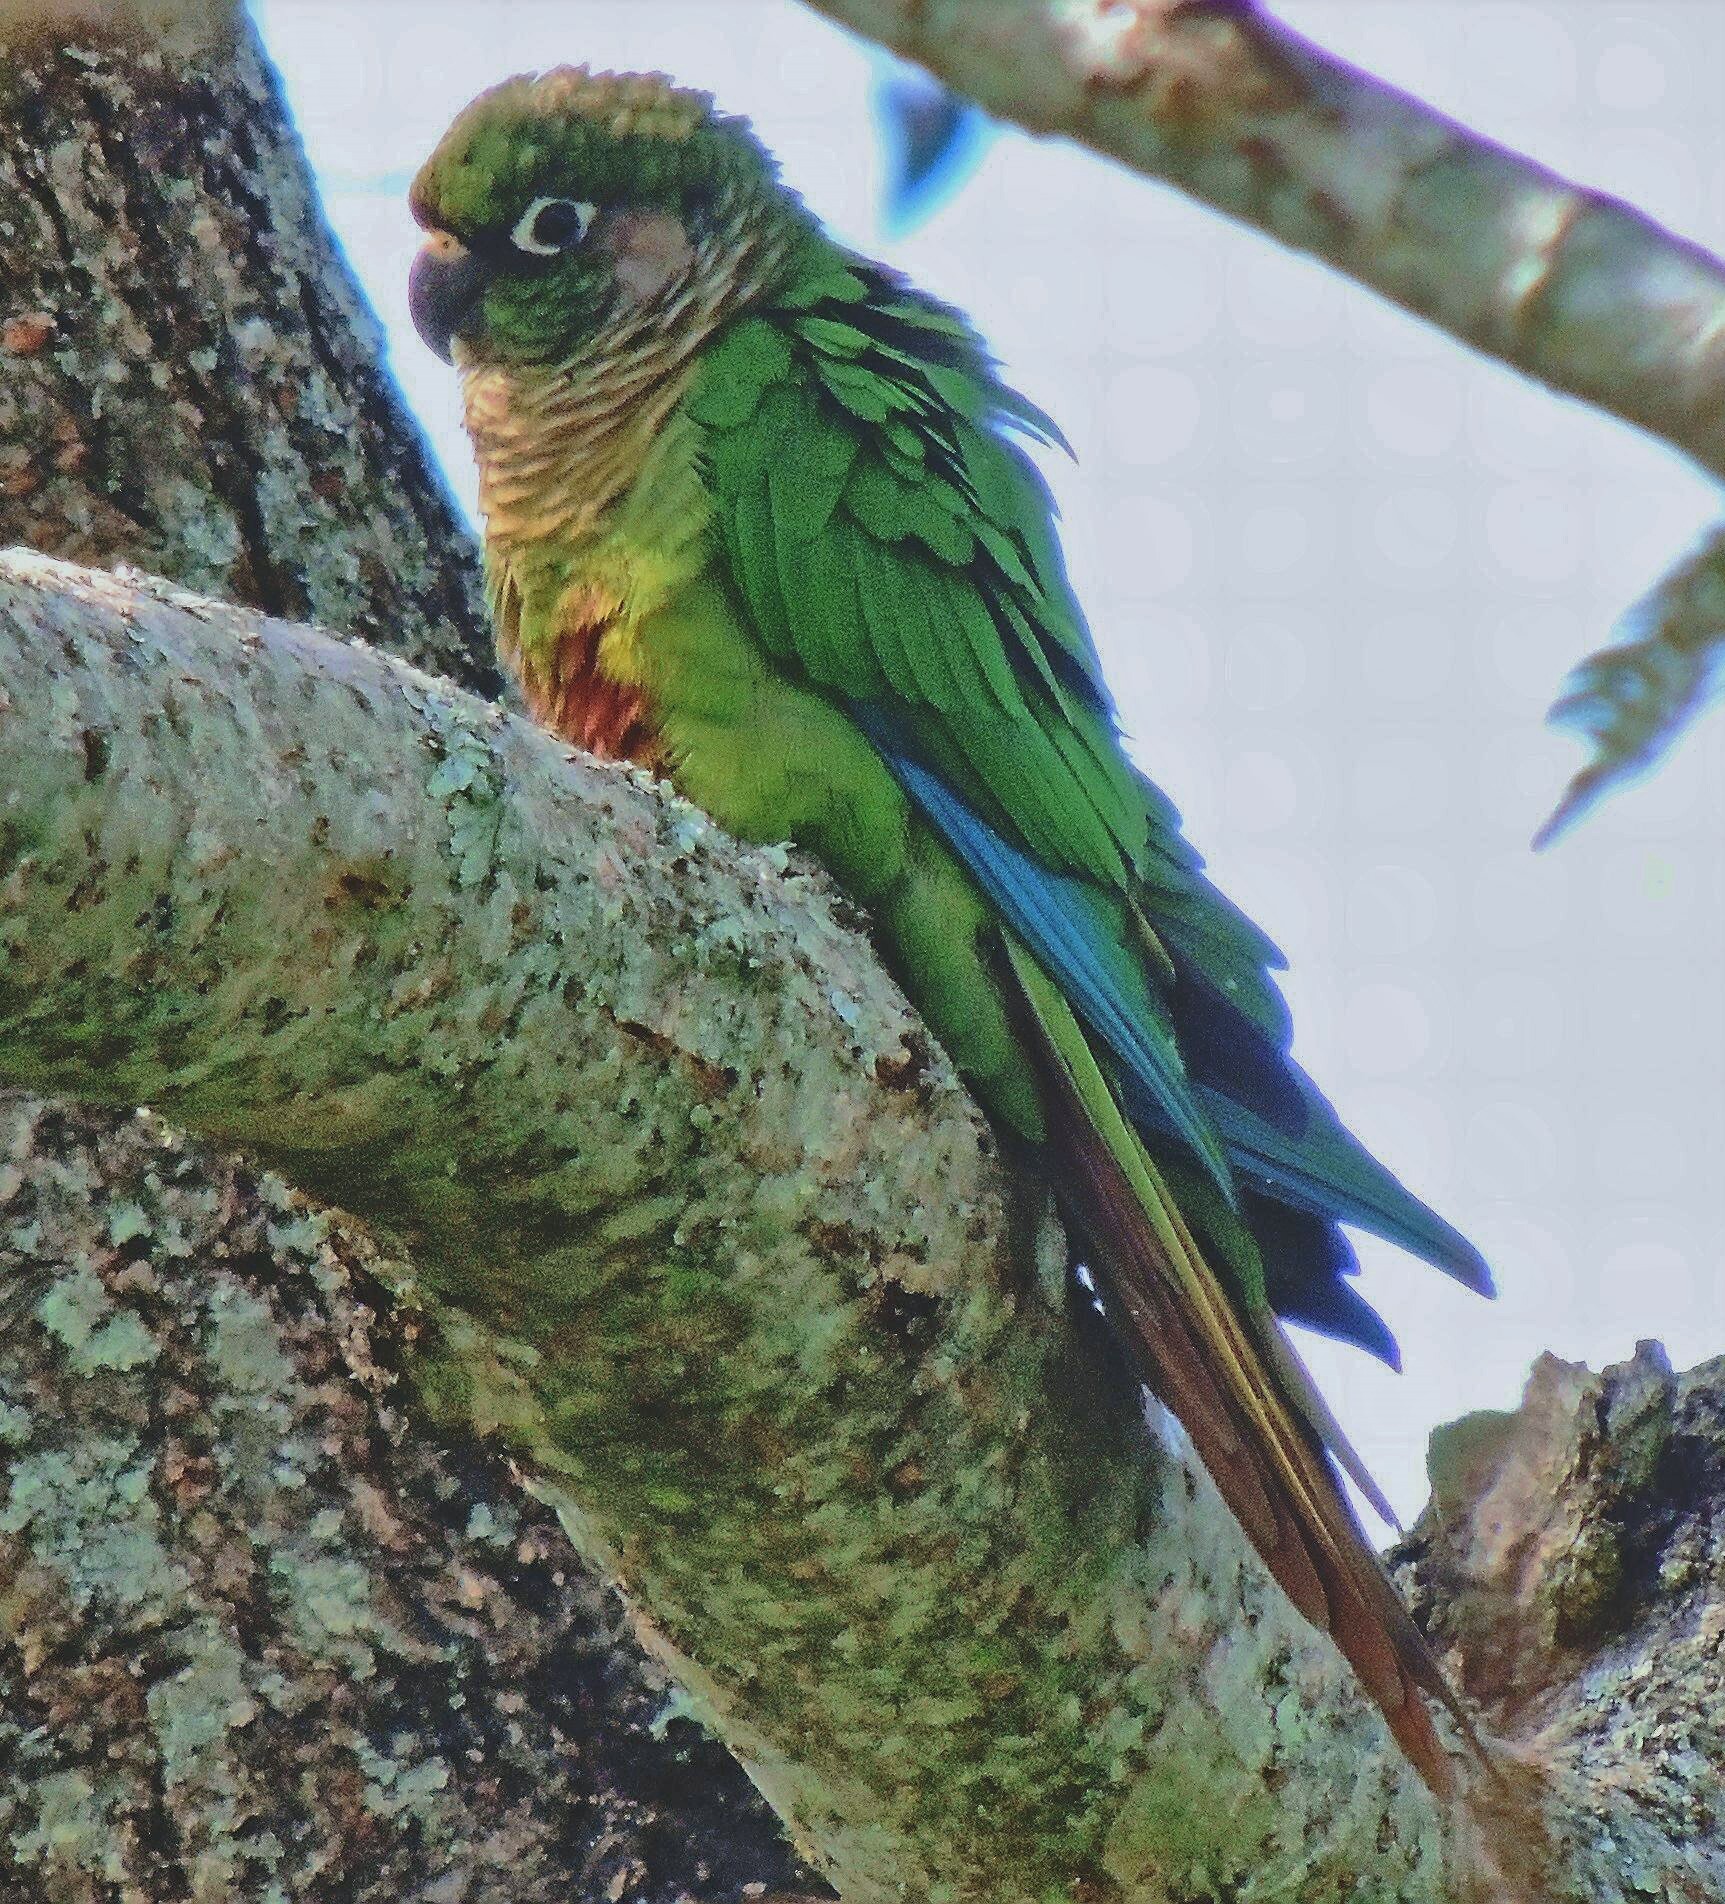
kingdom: Animalia
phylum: Chordata
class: Aves
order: Psittaciformes
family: Psittacidae
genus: Pyrrhura
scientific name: Pyrrhura frontalis
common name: Maroon-bellied parakeet
